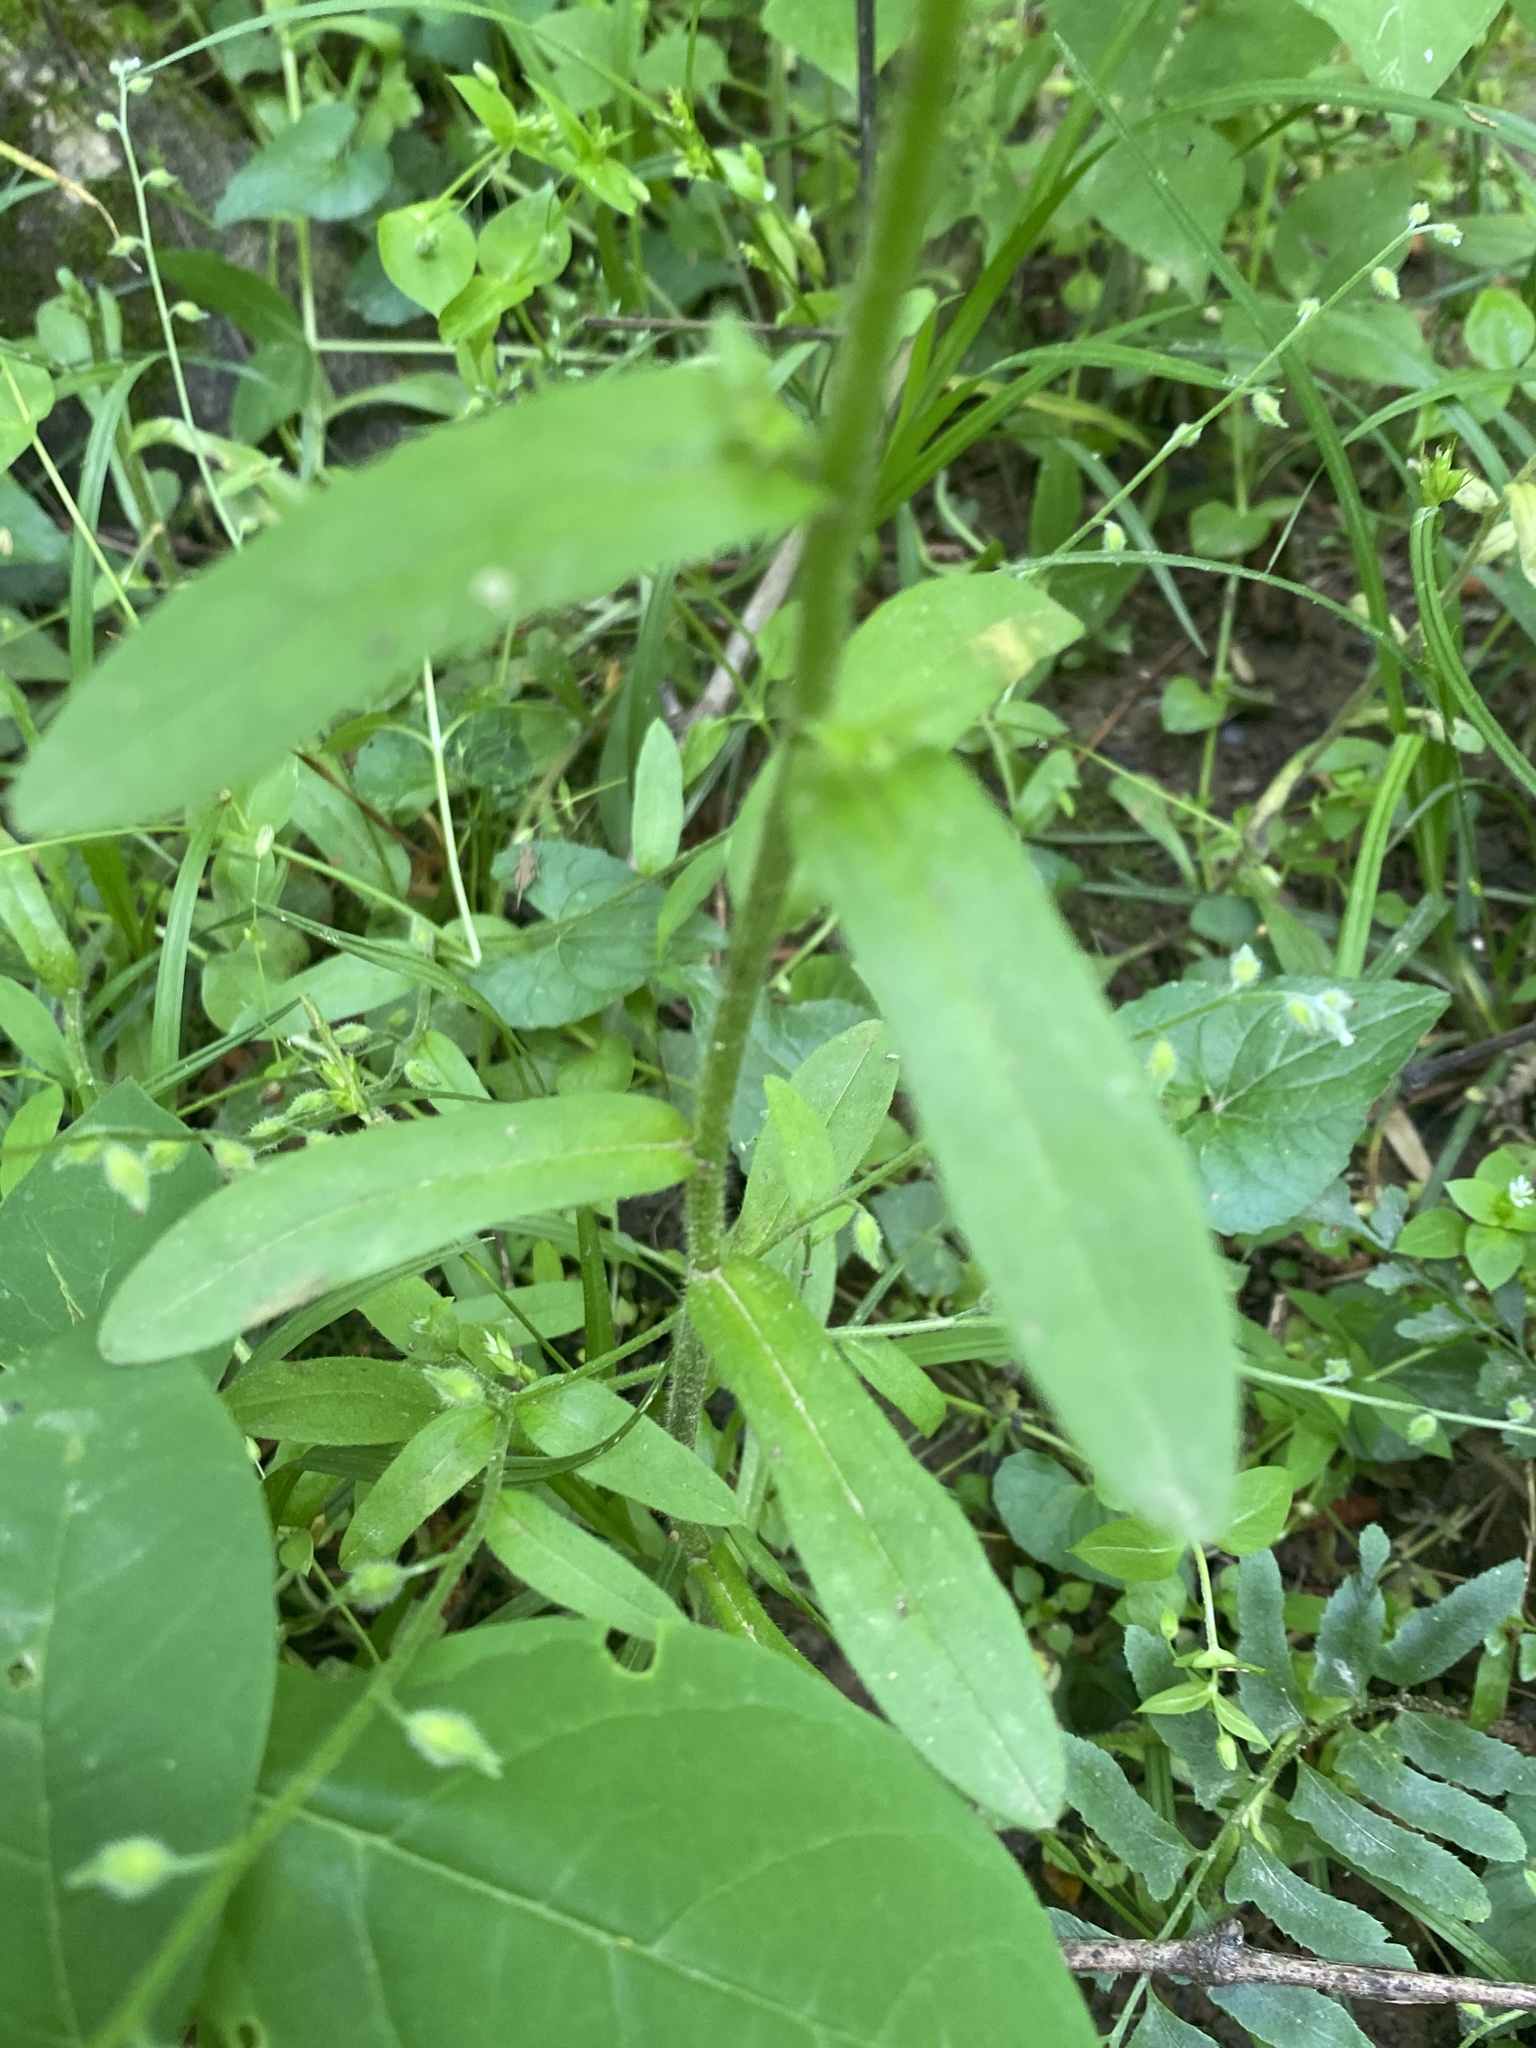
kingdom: Plantae
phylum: Tracheophyta
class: Magnoliopsida
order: Boraginales
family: Boraginaceae
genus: Myosotis
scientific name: Myosotis macrosperma
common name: Large-seed forget-me-not
